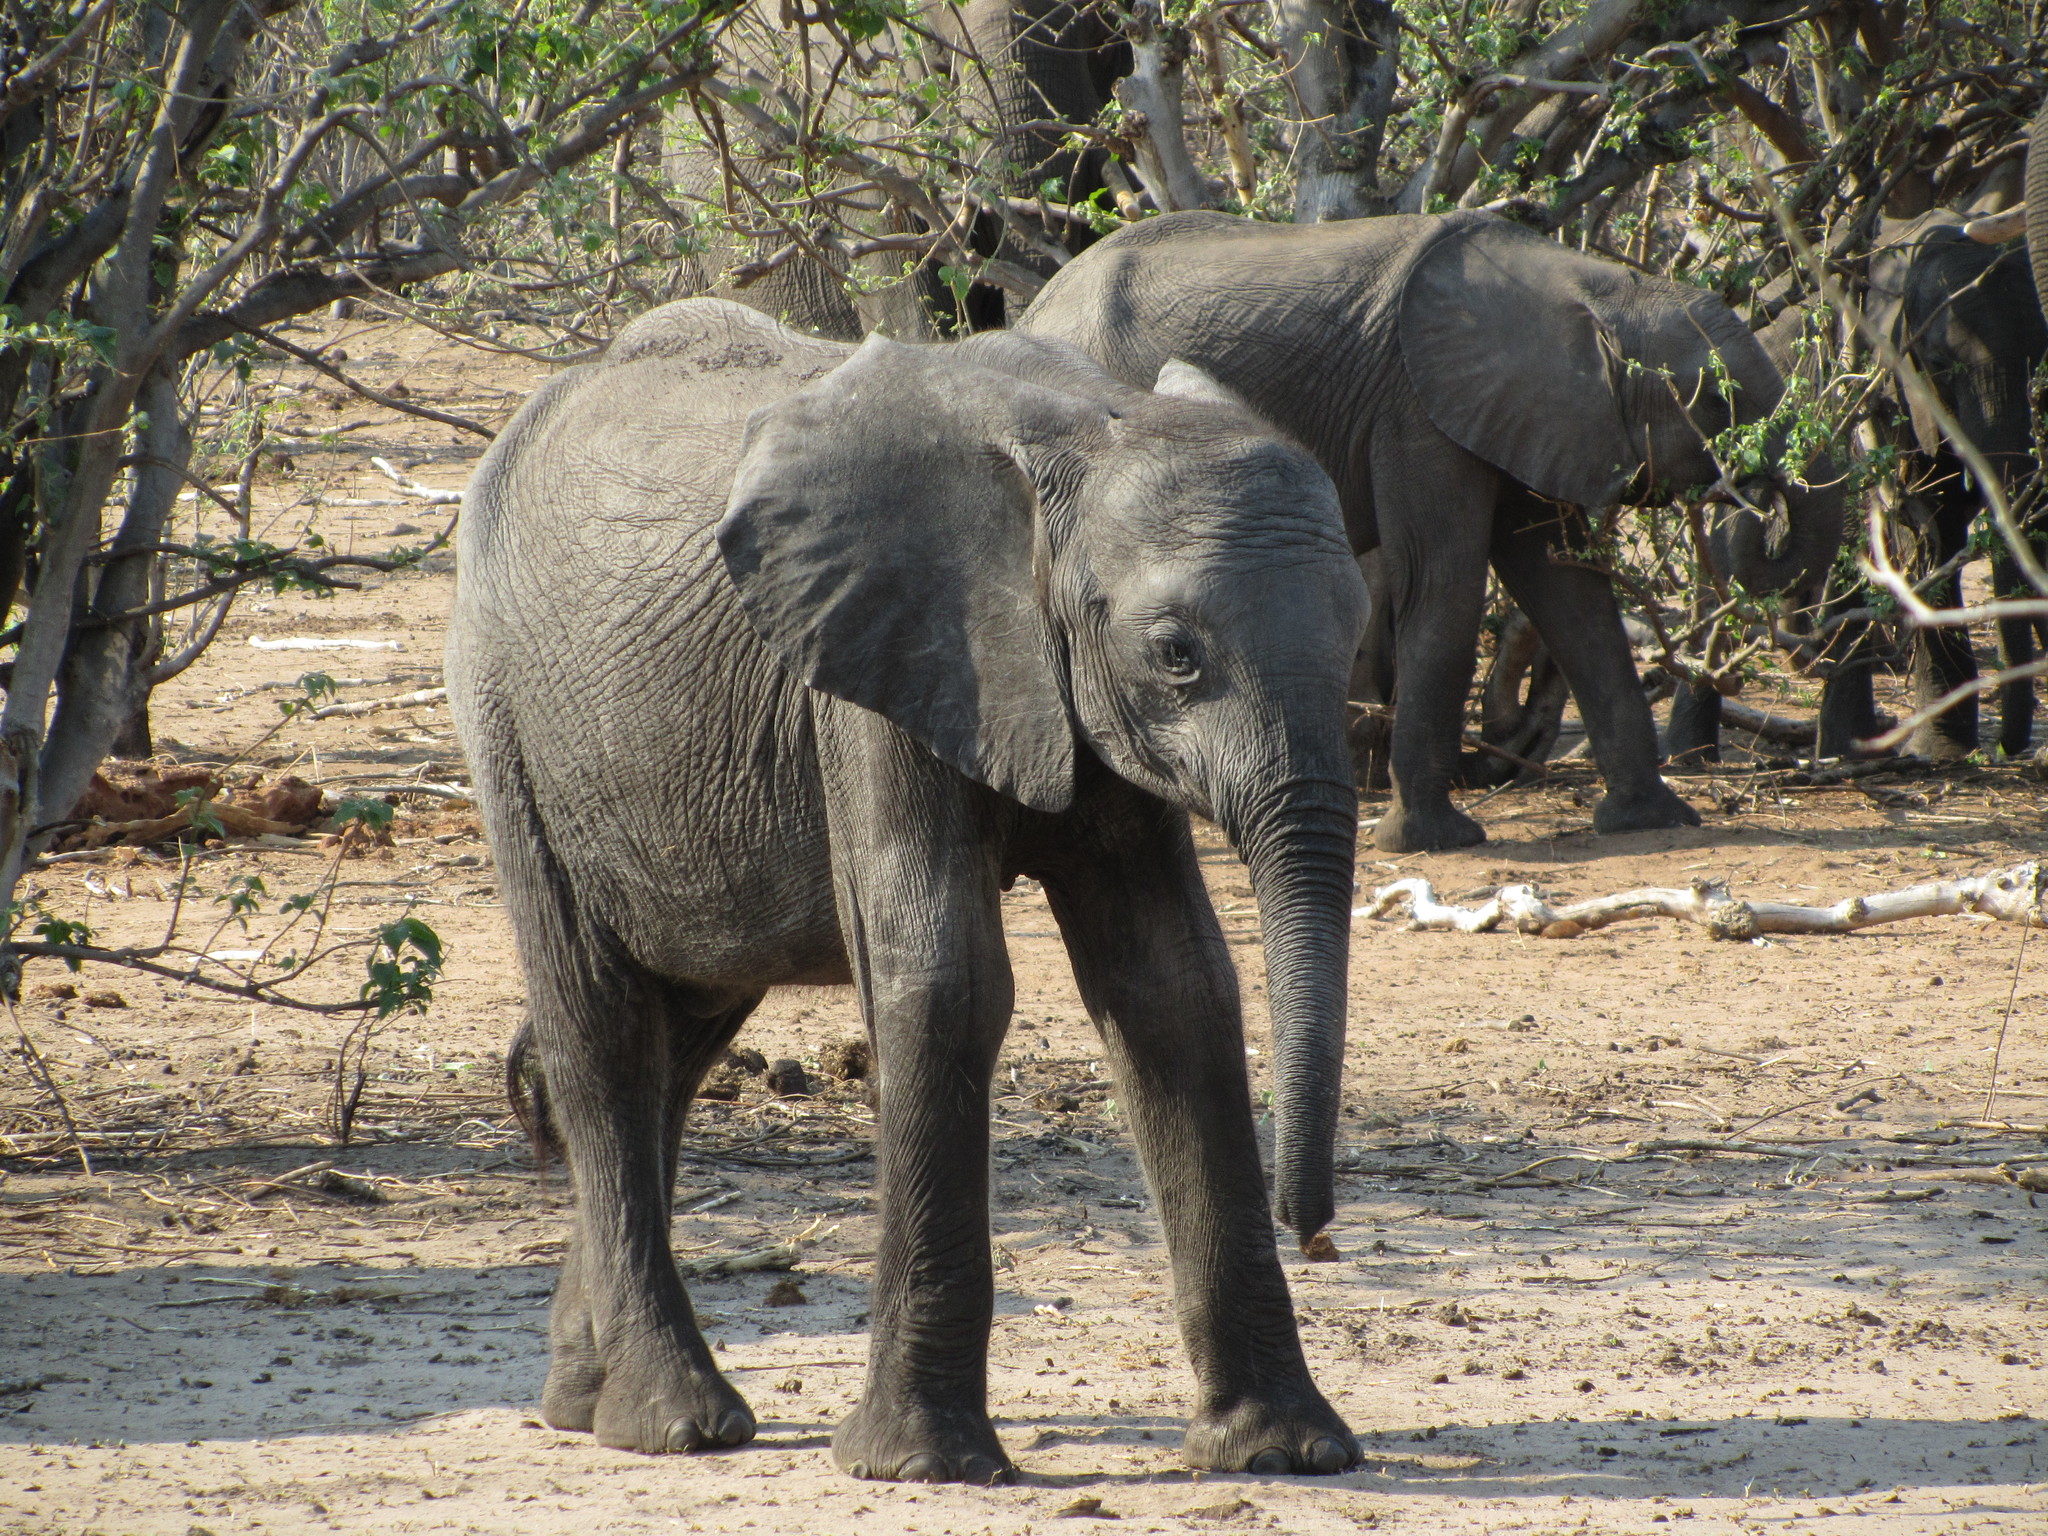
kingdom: Animalia
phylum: Chordata
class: Mammalia
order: Proboscidea
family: Elephantidae
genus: Loxodonta
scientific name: Loxodonta africana
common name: African elephant
